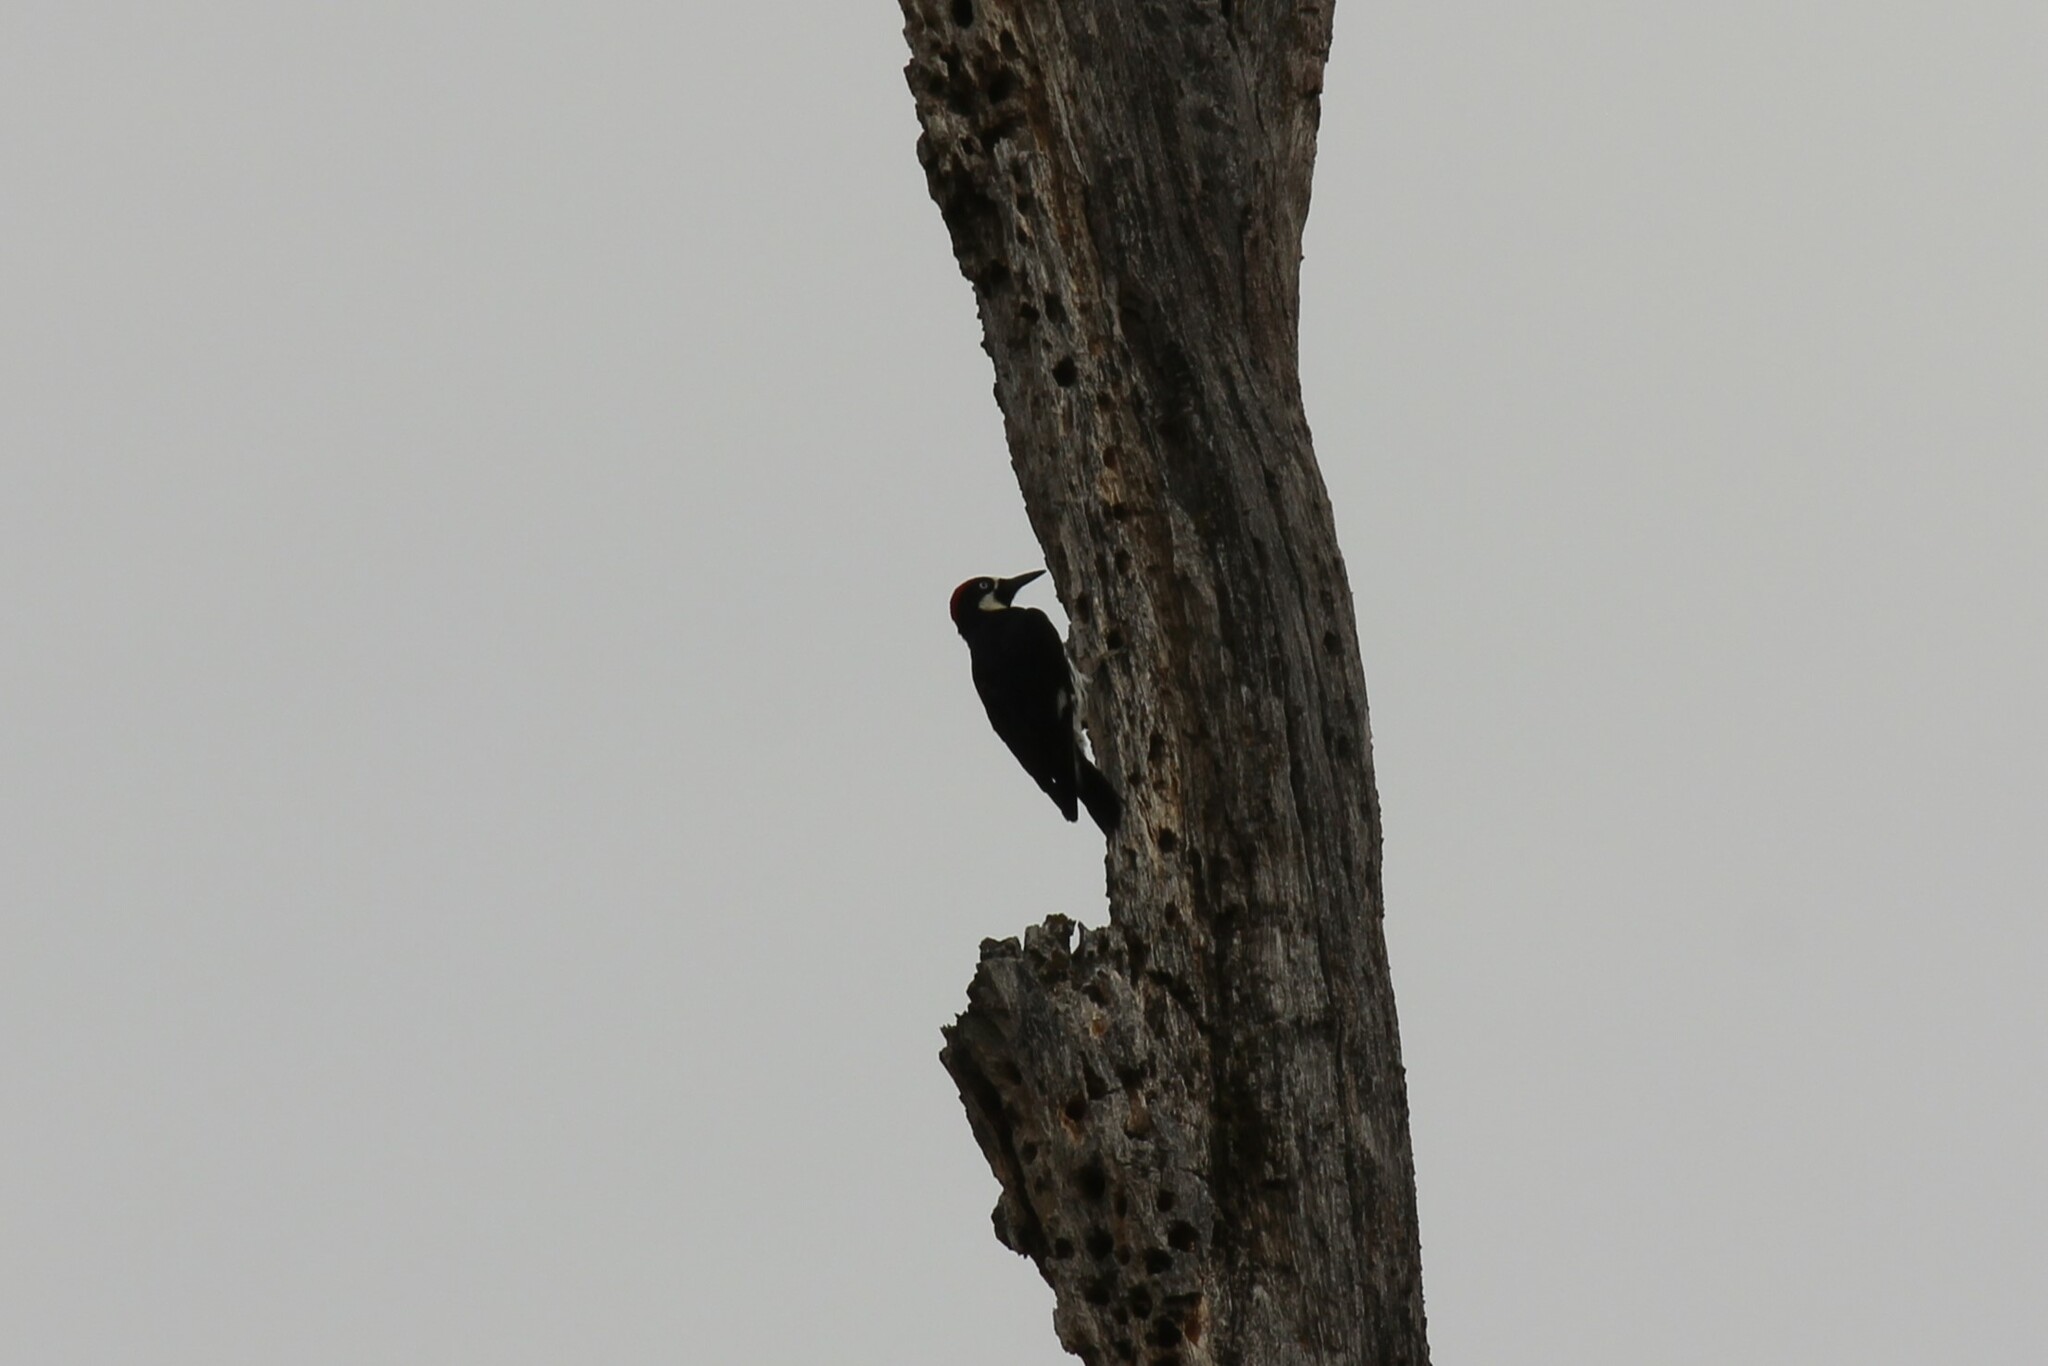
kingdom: Animalia
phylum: Chordata
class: Aves
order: Piciformes
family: Picidae
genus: Melanerpes
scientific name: Melanerpes formicivorus
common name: Acorn woodpecker
